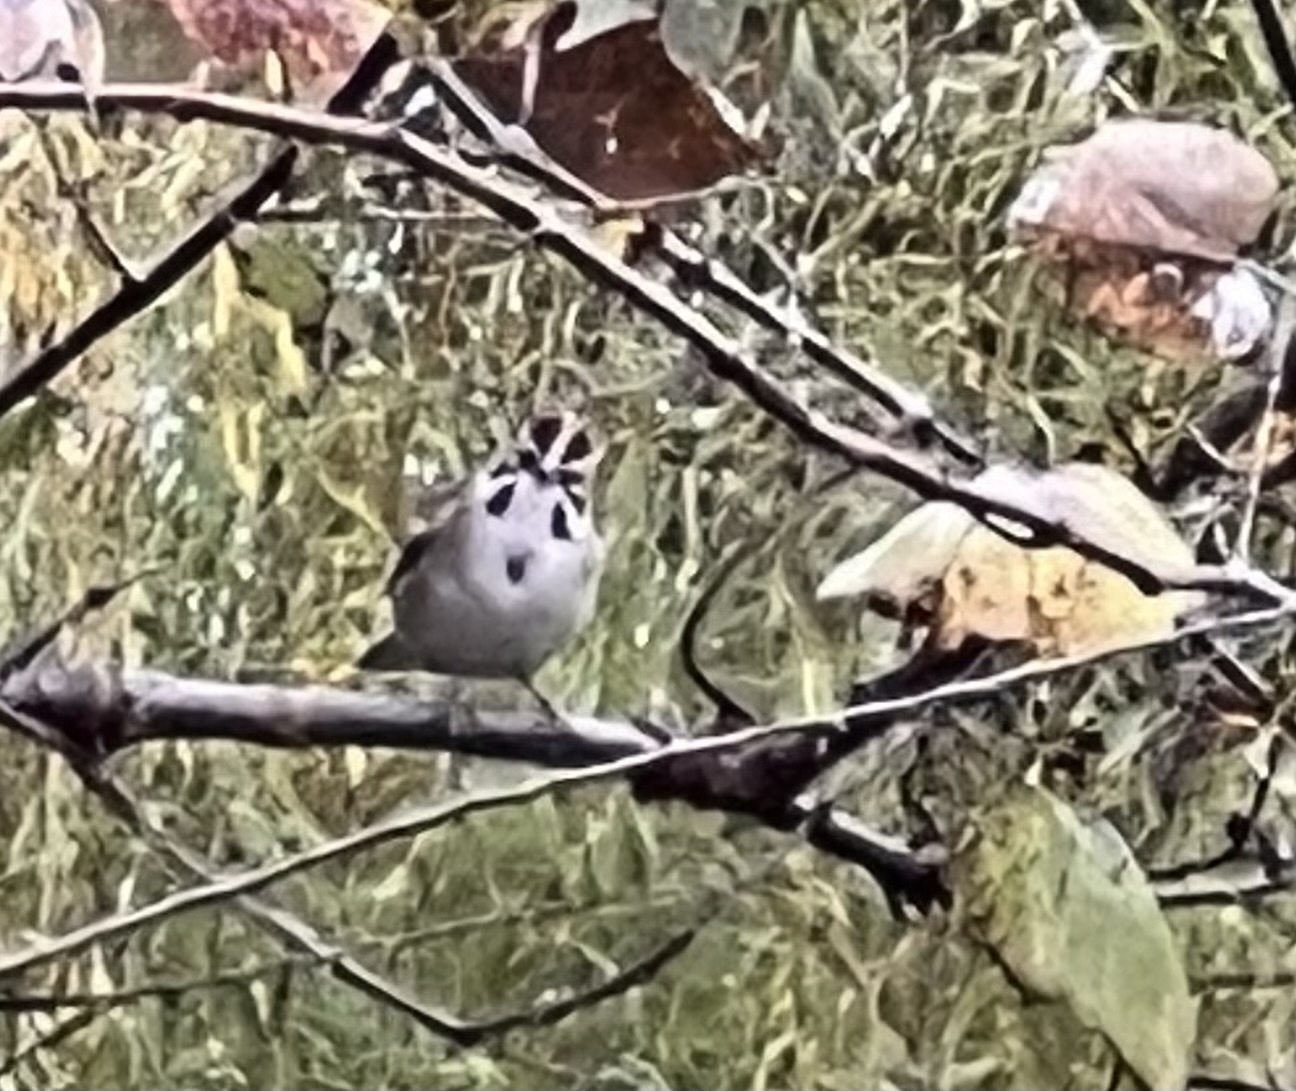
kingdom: Animalia
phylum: Chordata
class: Aves
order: Passeriformes
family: Passerellidae
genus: Chondestes
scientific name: Chondestes grammacus
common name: Lark sparrow
